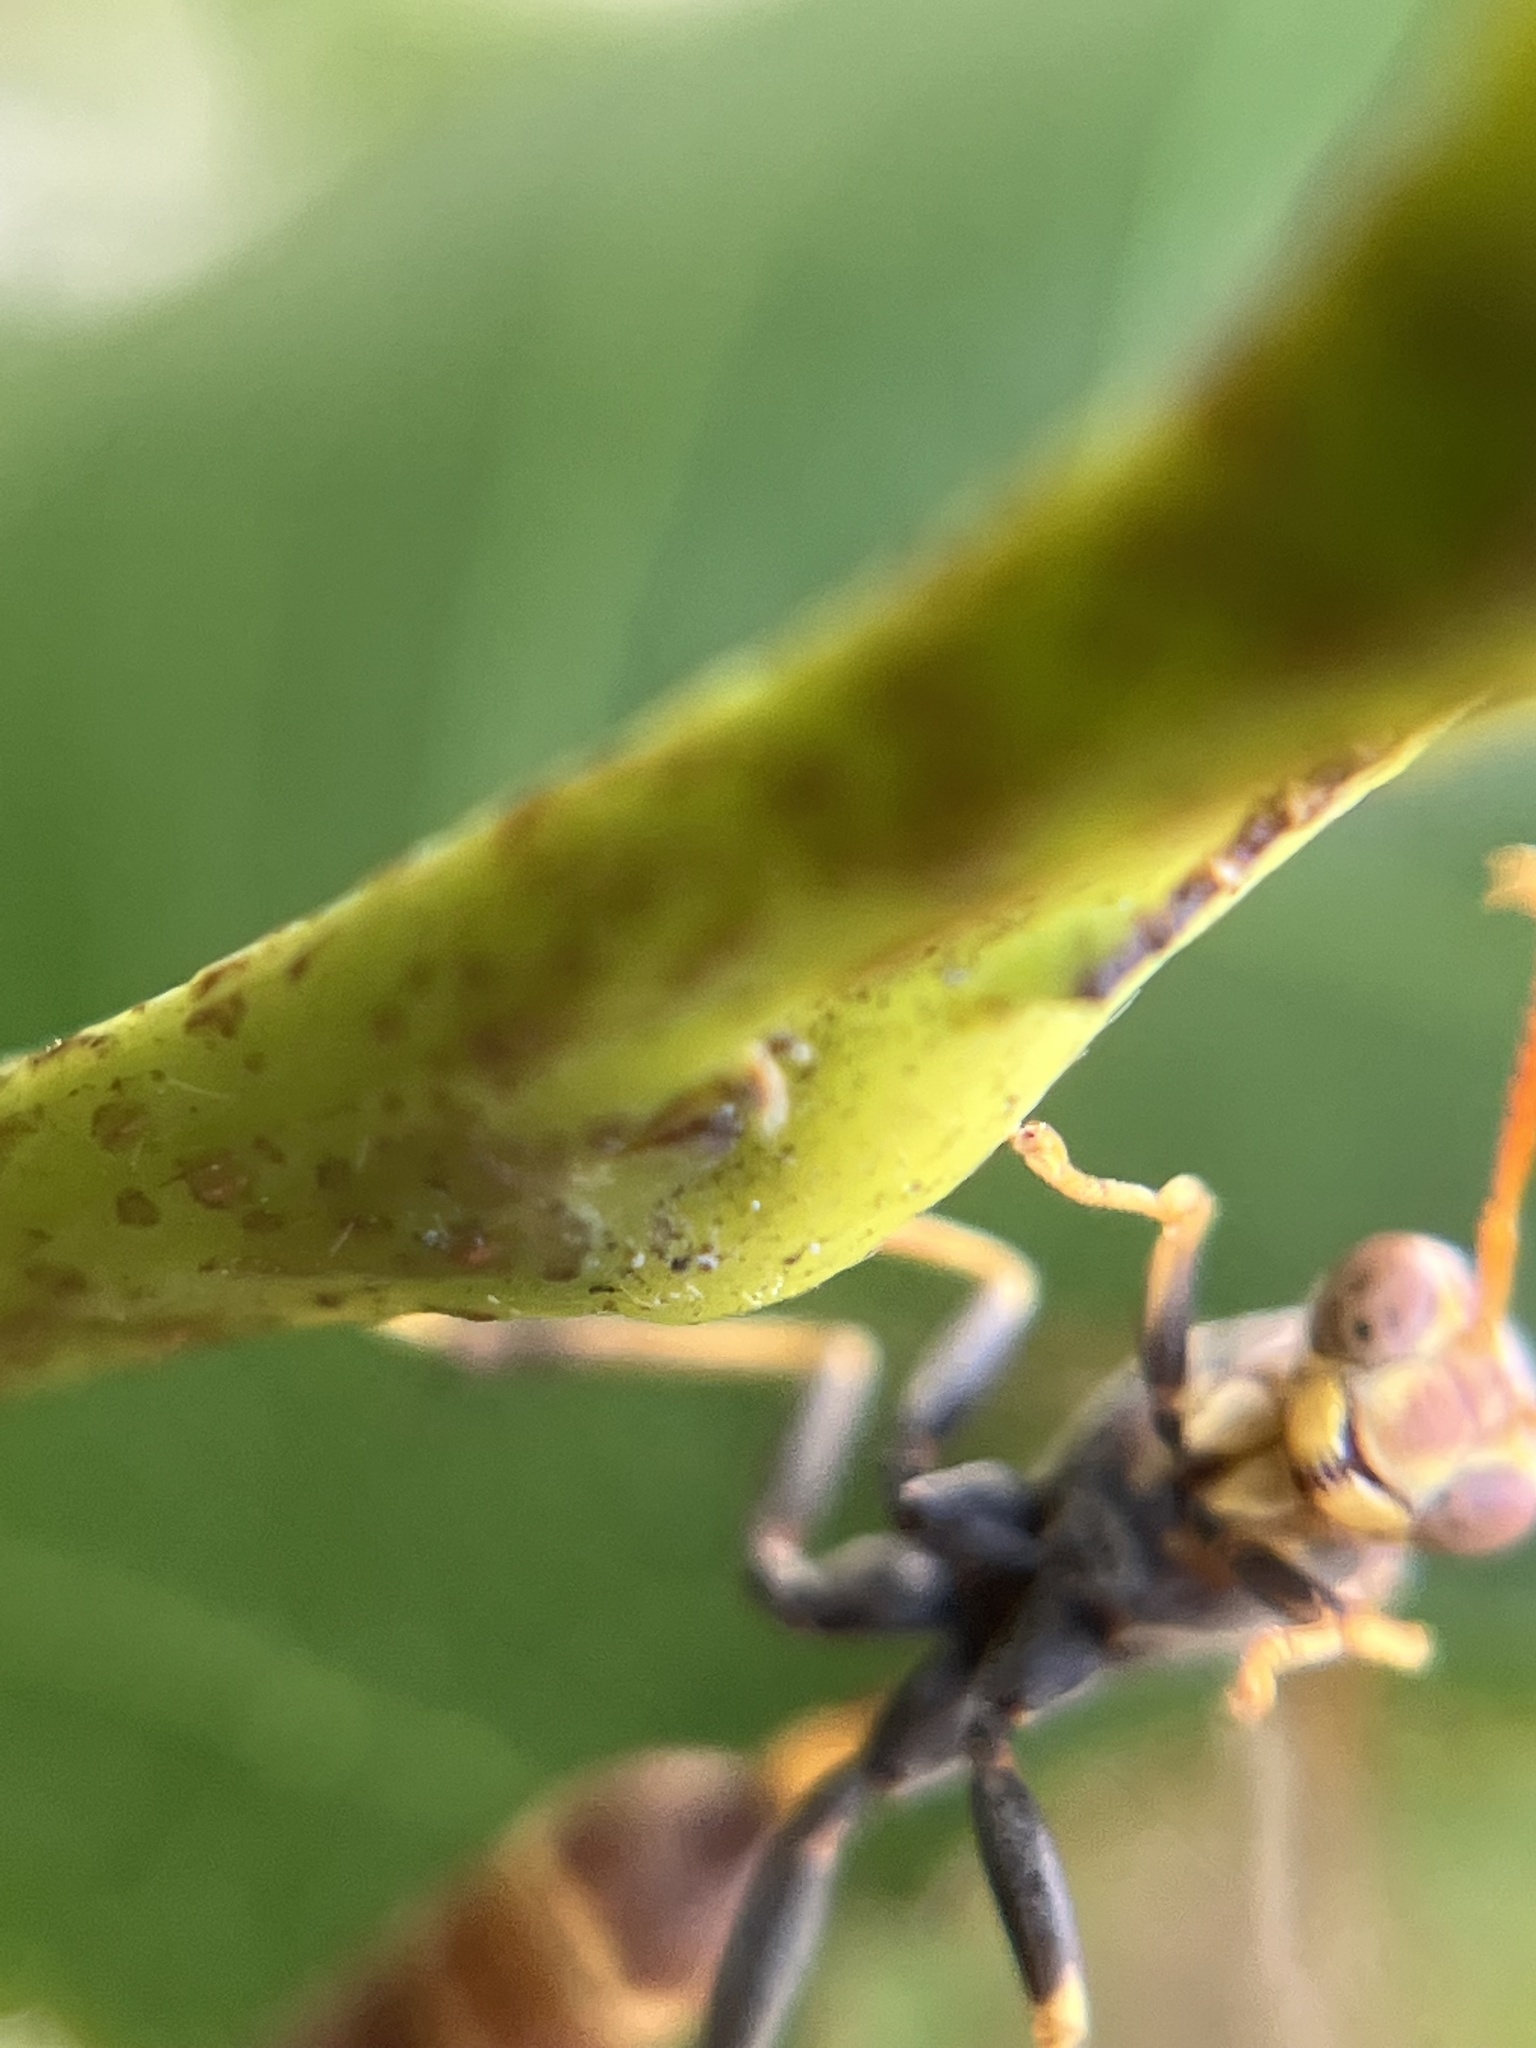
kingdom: Animalia
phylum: Arthropoda
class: Insecta
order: Hymenoptera
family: Vespidae
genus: Mischocyttarus
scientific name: Mischocyttarus mexicanus
